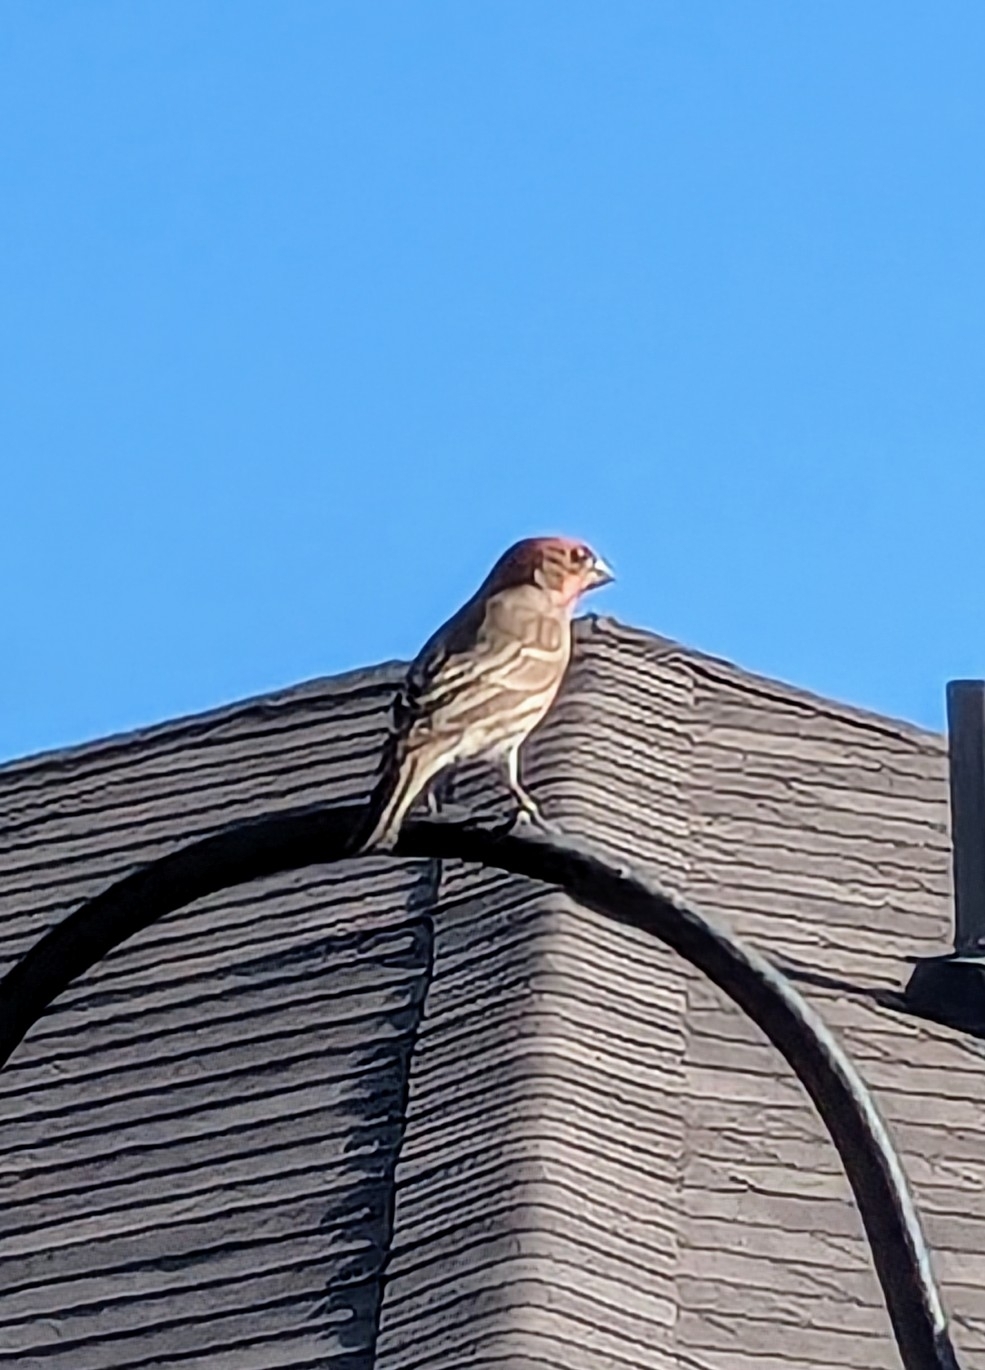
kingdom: Animalia
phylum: Chordata
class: Aves
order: Passeriformes
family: Fringillidae
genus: Haemorhous
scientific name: Haemorhous mexicanus
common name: House finch
